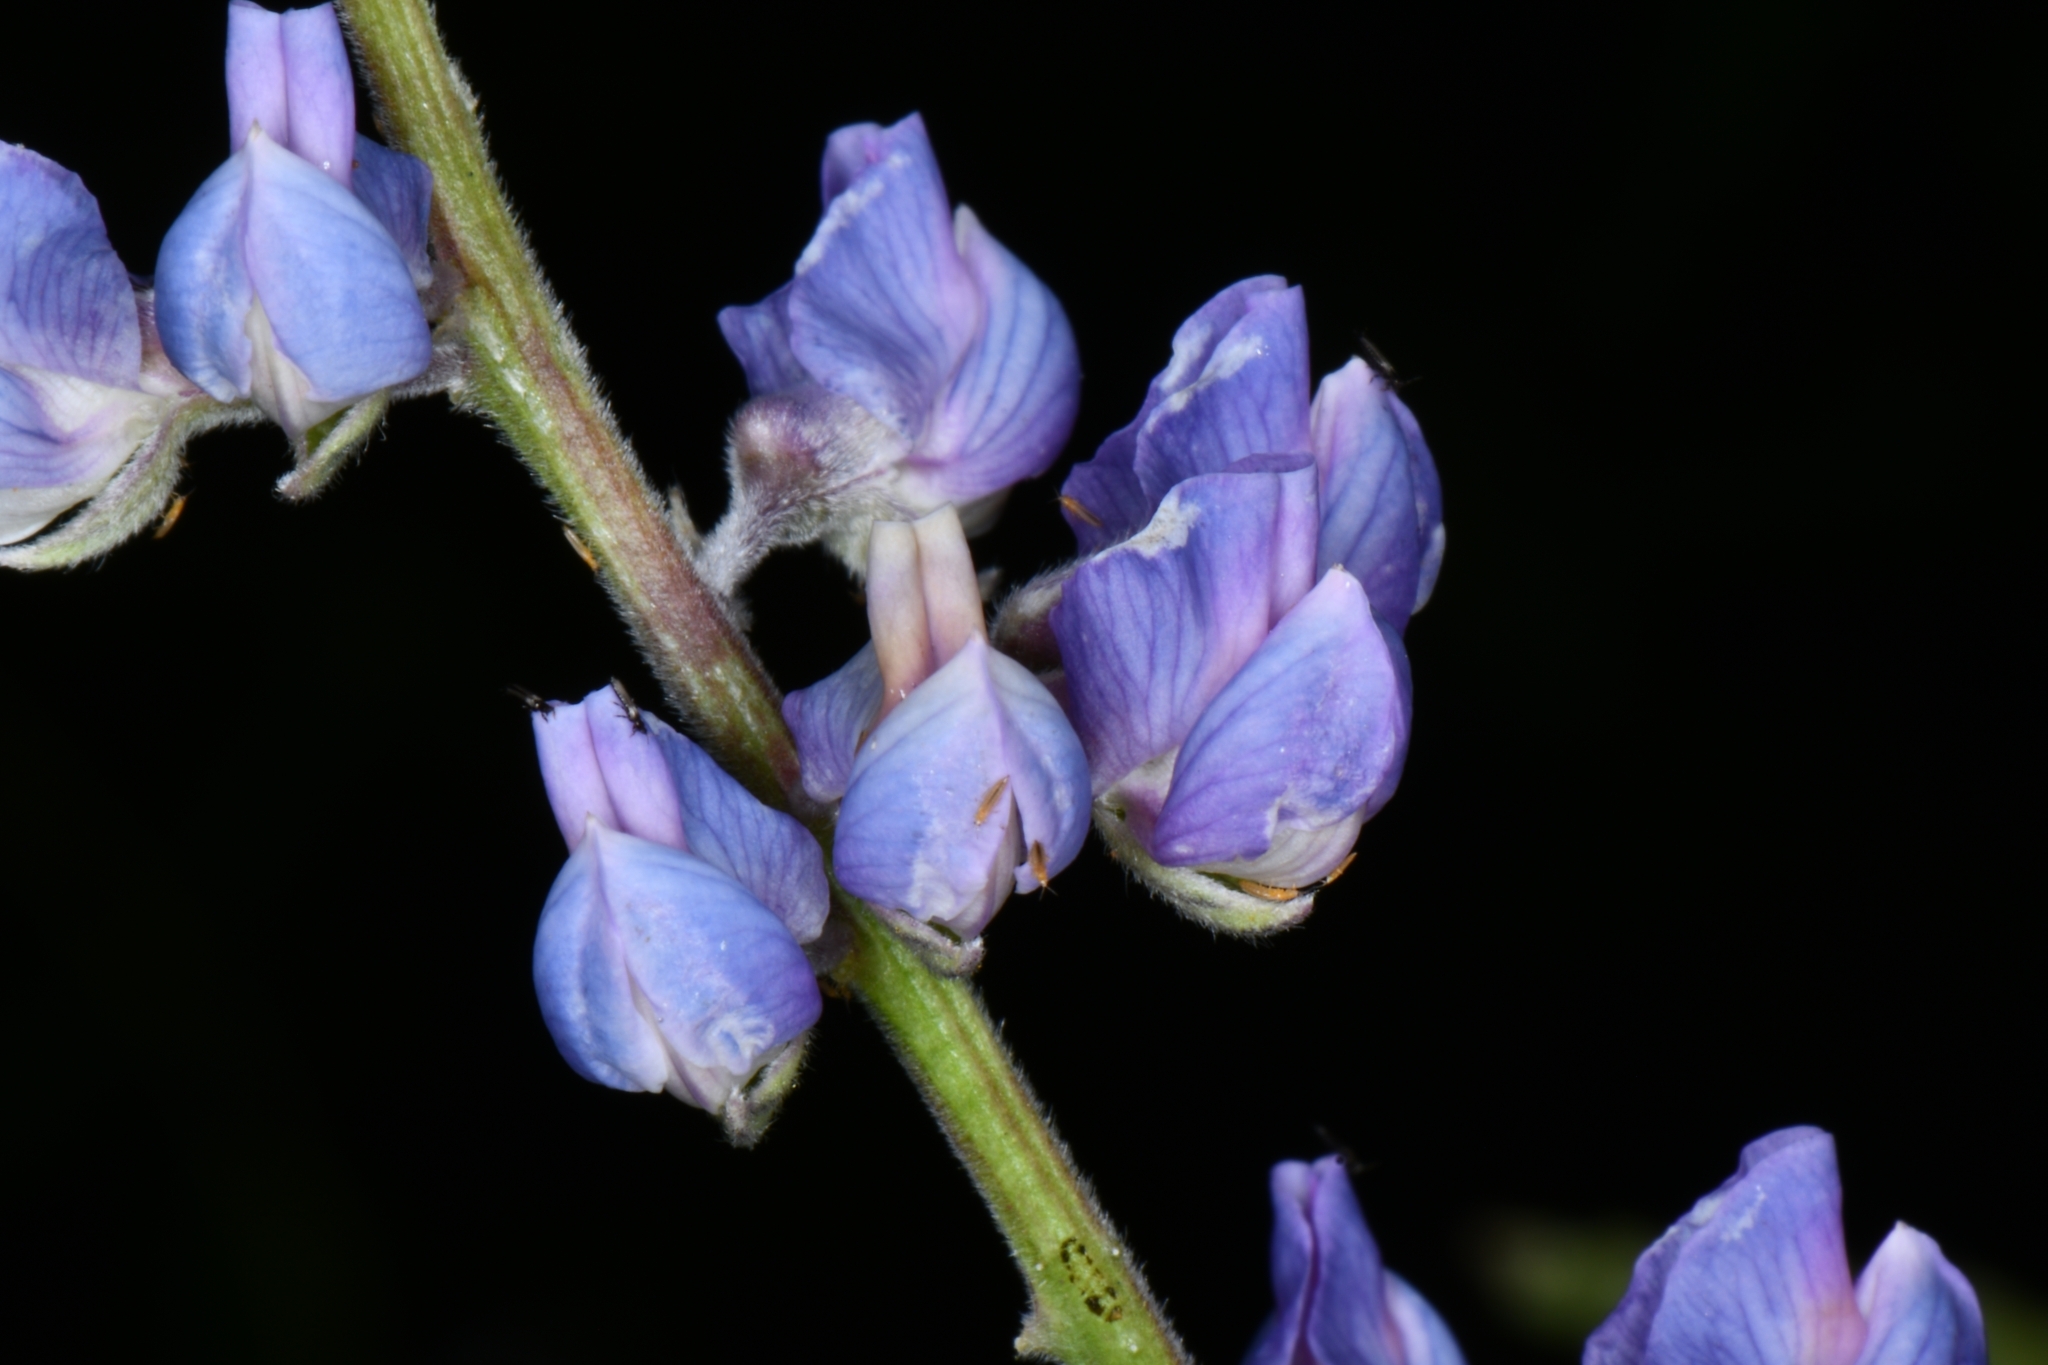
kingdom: Plantae
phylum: Tracheophyta
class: Magnoliopsida
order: Fabales
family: Fabaceae
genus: Lupinus
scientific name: Lupinus argenteus
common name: Silvery lupine
